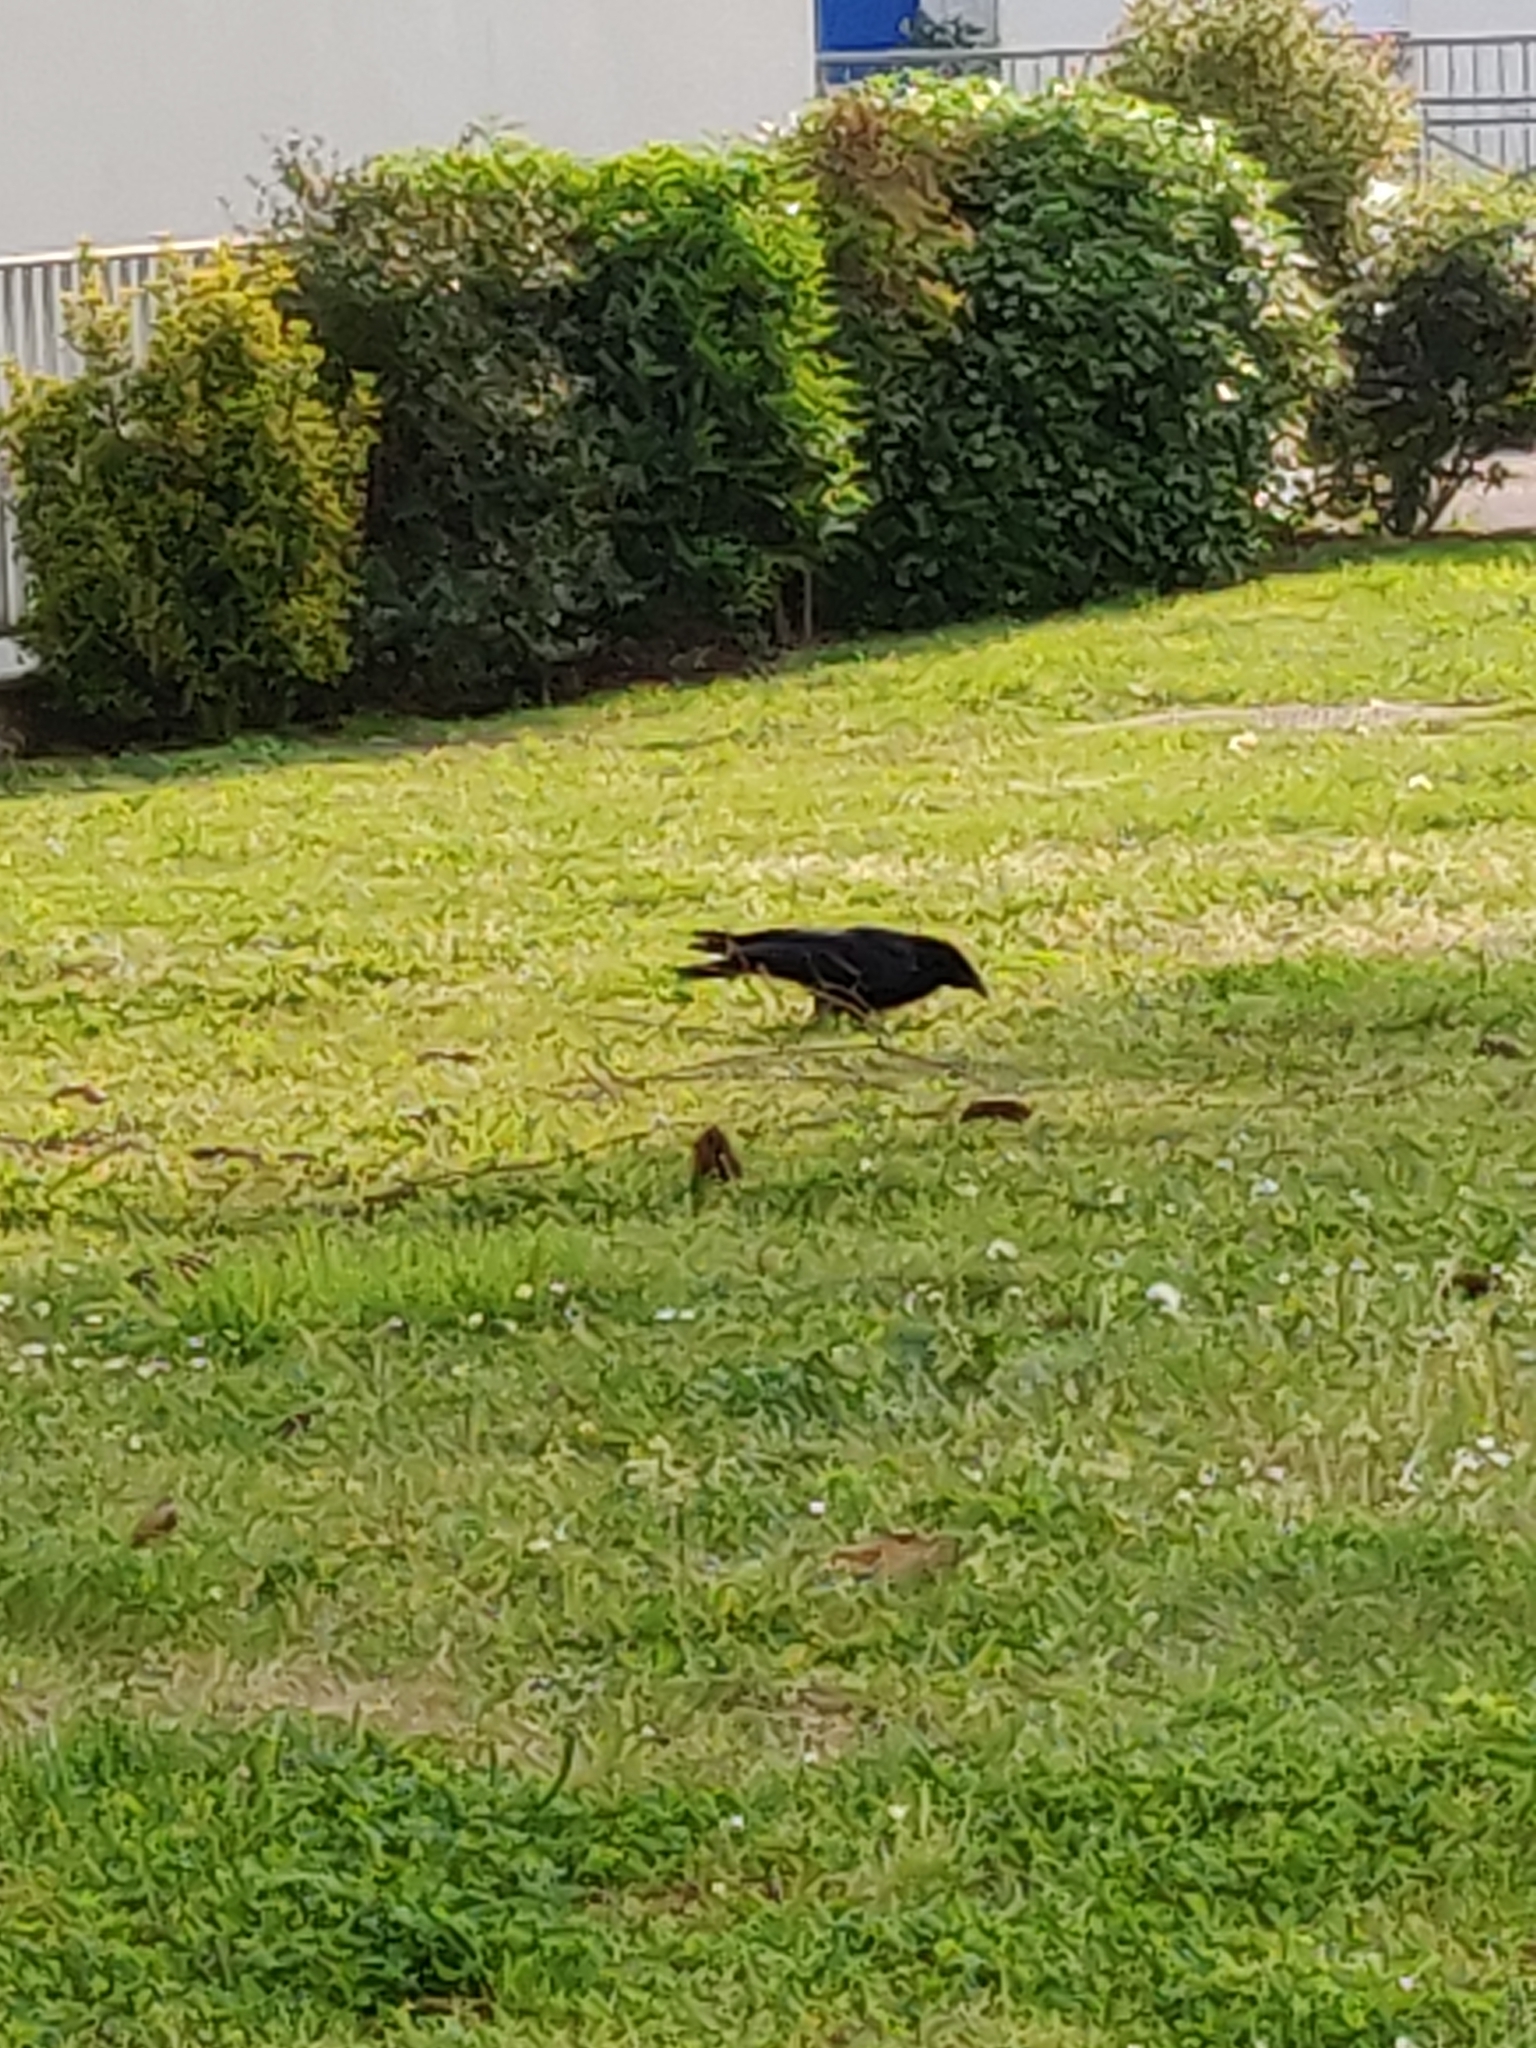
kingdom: Animalia
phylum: Chordata
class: Aves
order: Passeriformes
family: Corvidae
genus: Corvus
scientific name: Corvus corone
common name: Carrion crow
